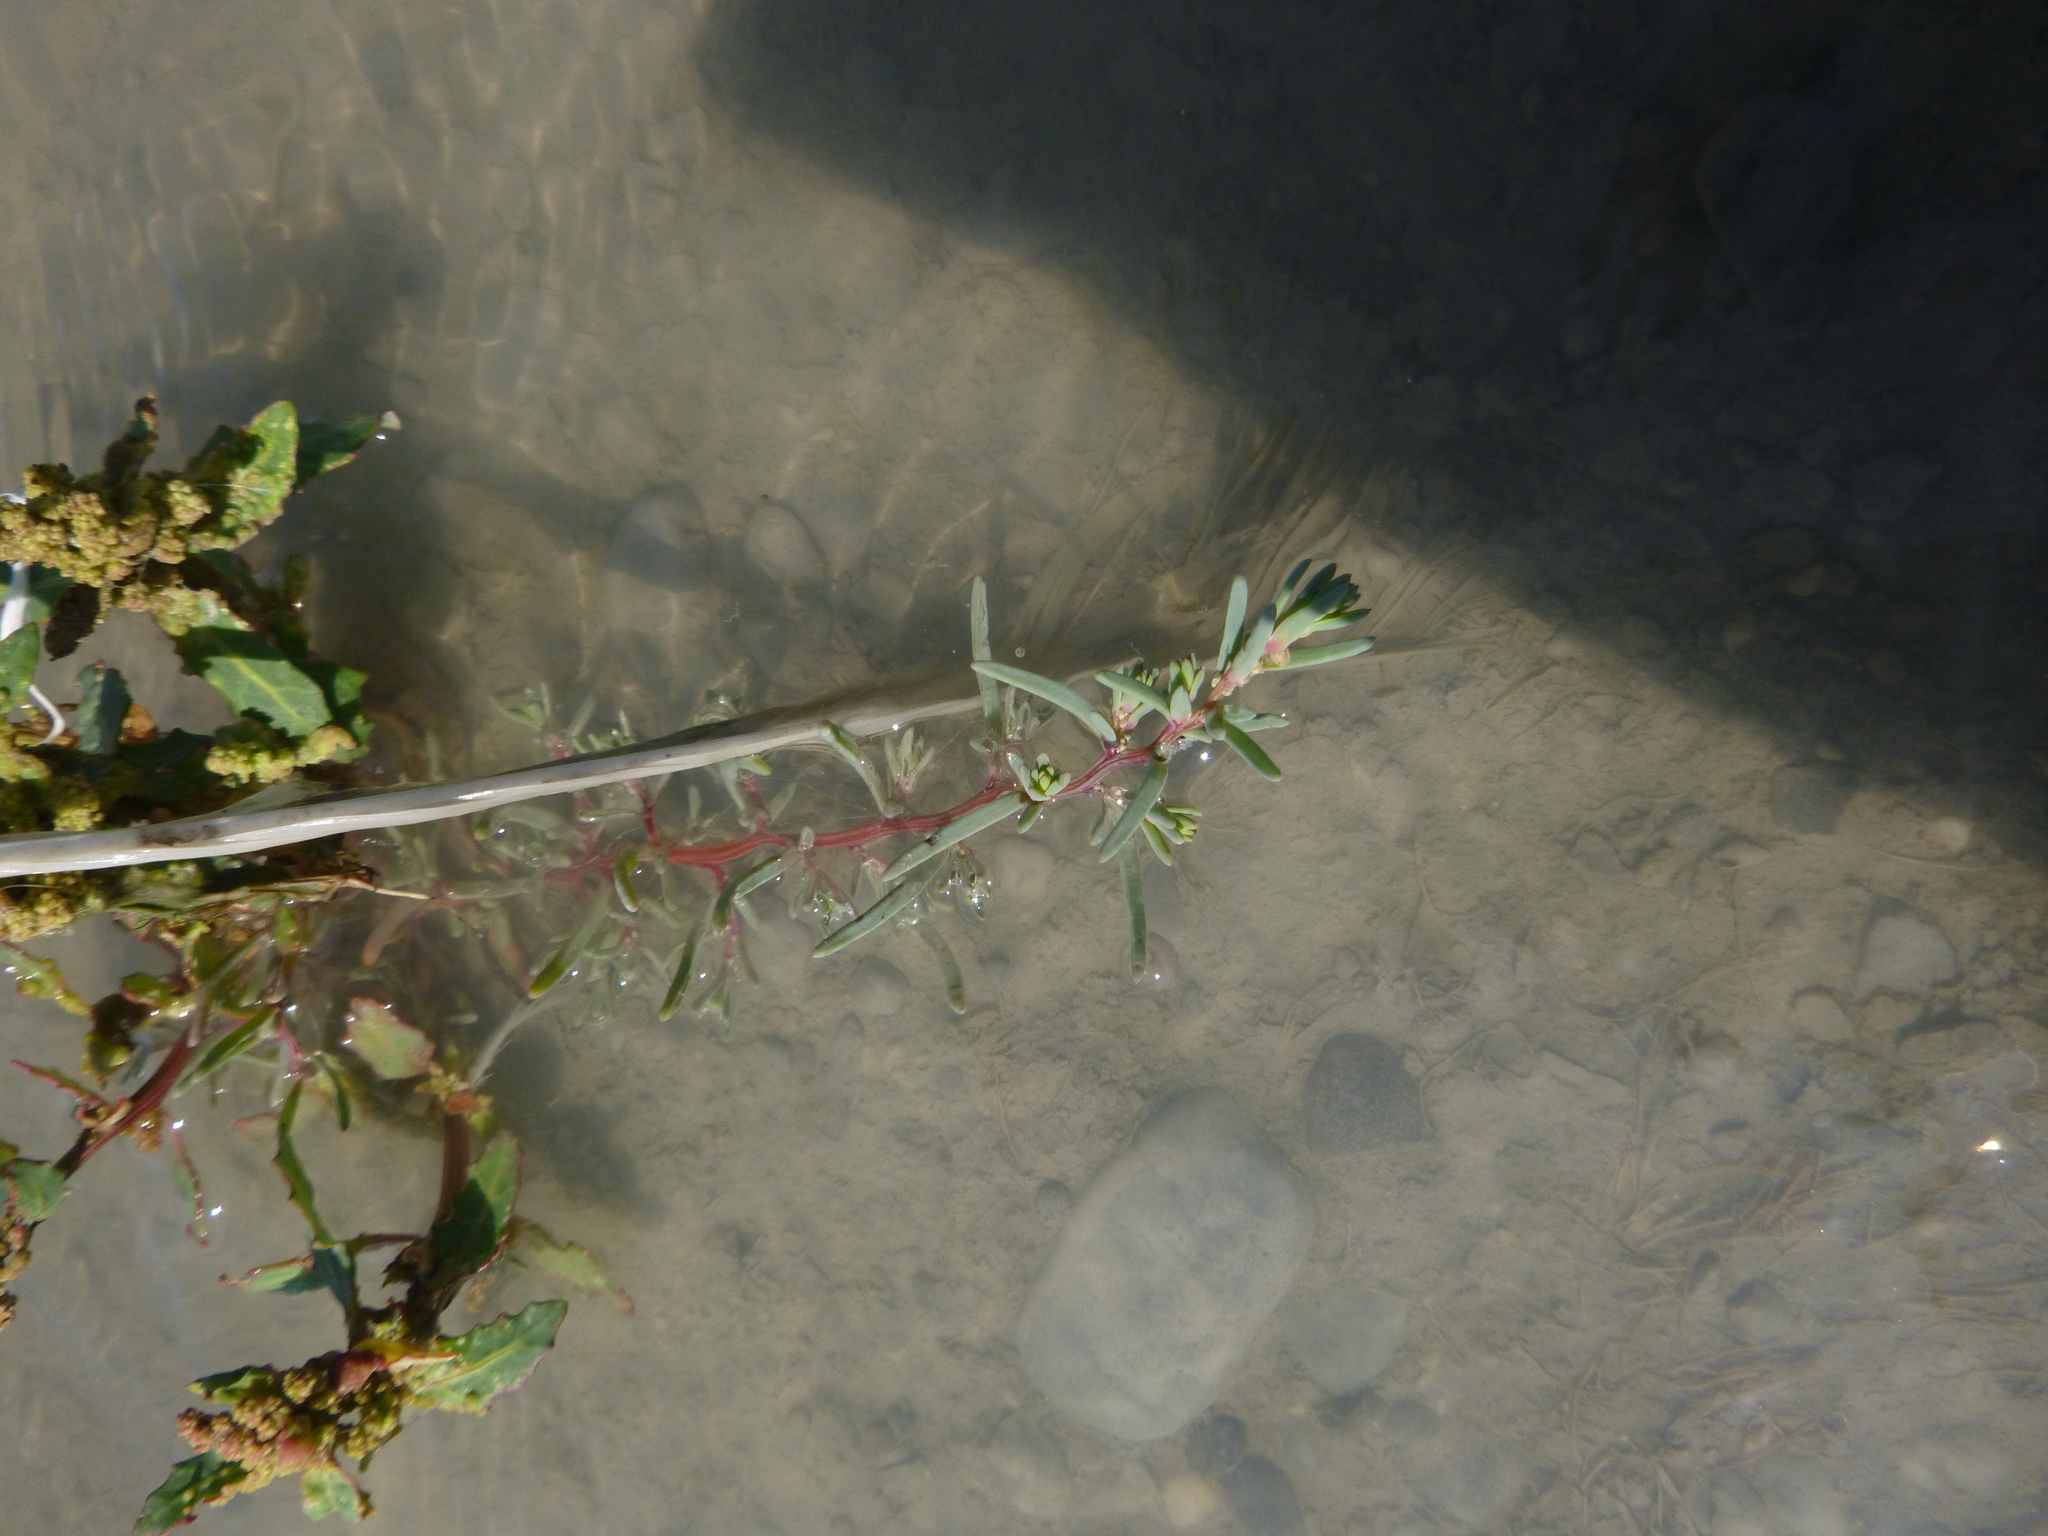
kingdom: Plantae
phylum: Tracheophyta
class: Magnoliopsida
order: Caryophyllales
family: Amaranthaceae
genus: Suaeda
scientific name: Suaeda pannonica
